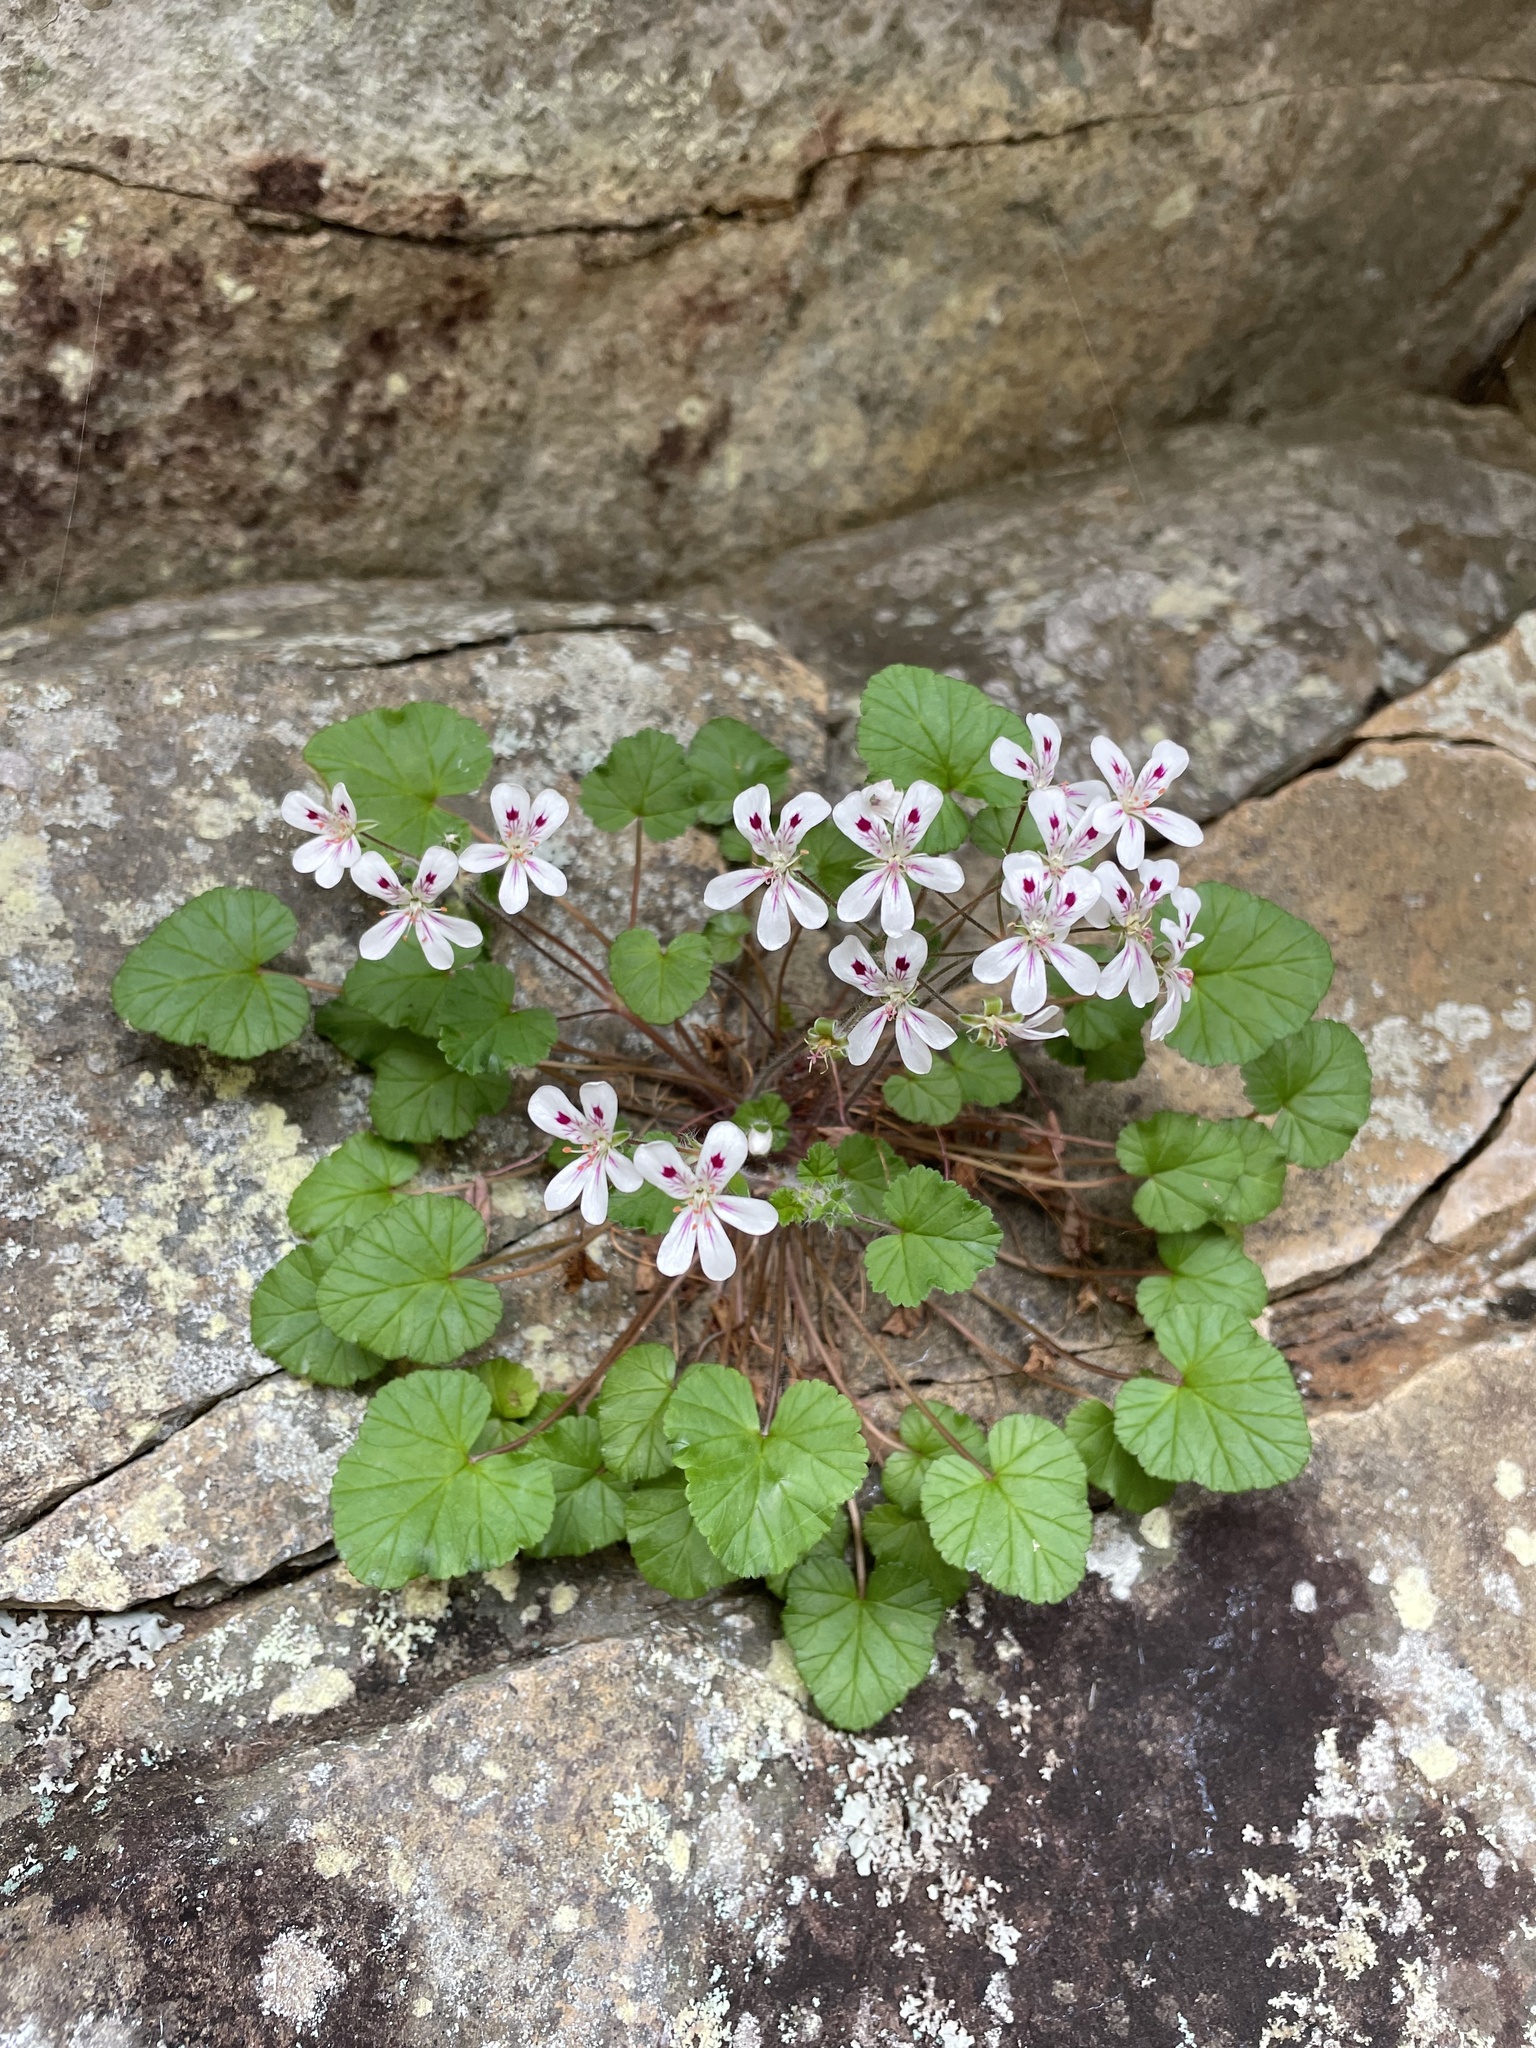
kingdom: Plantae
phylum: Tracheophyta
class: Magnoliopsida
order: Geraniales
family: Geraniaceae
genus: Pelargonium
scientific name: Pelargonium littorale
